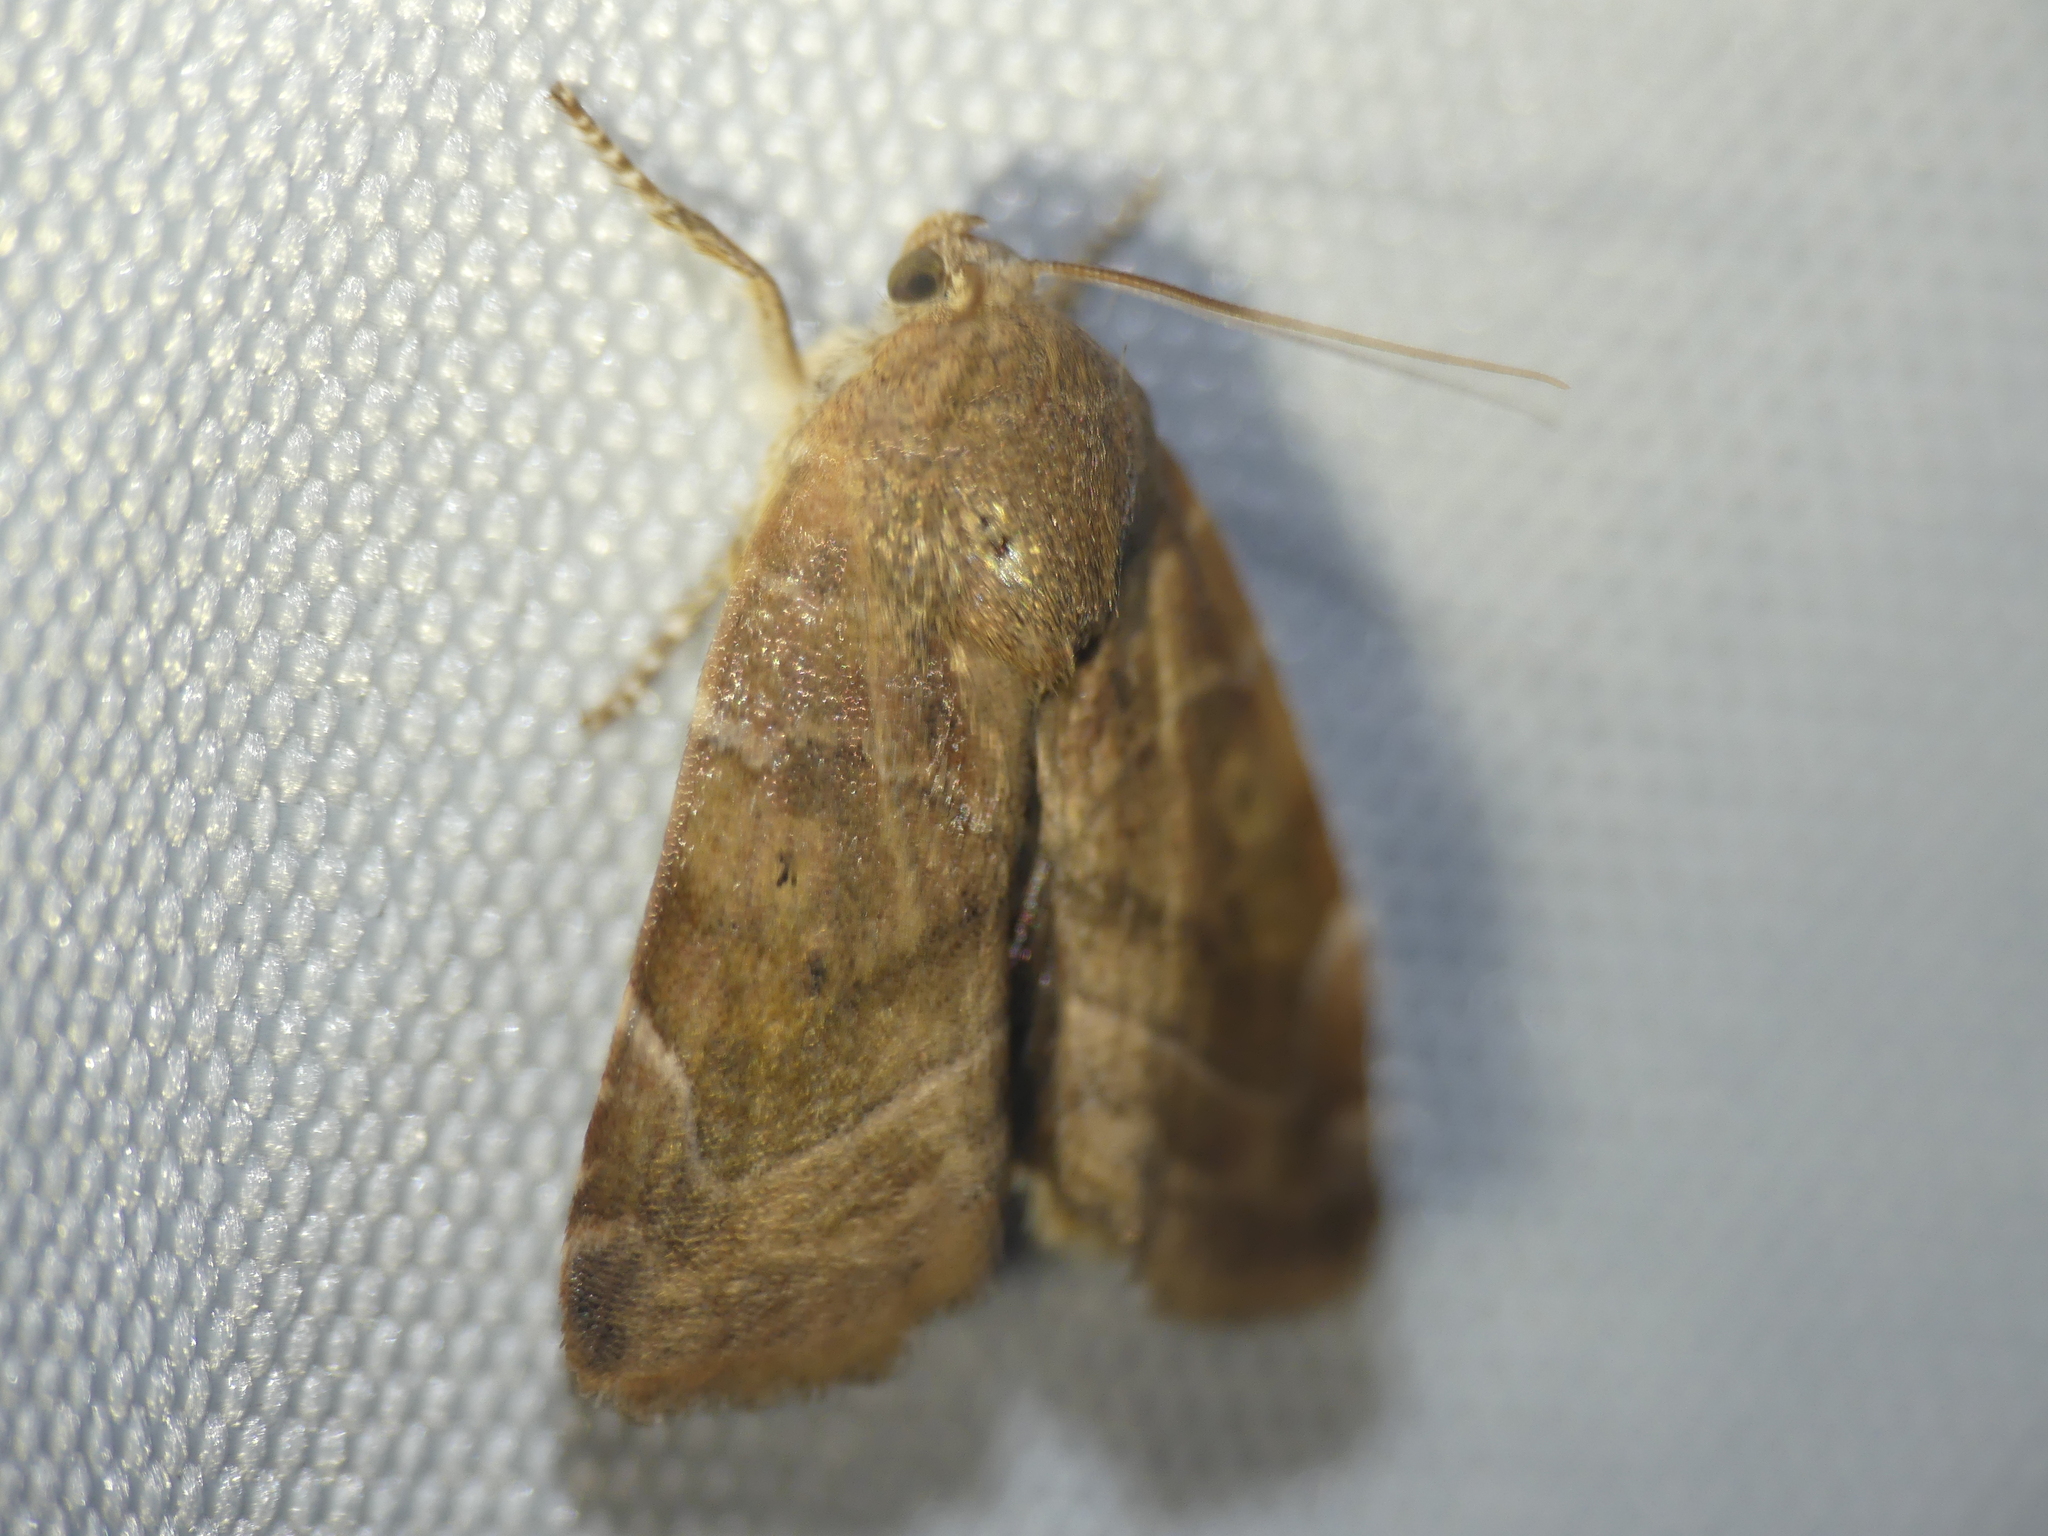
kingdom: Animalia
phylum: Arthropoda
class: Insecta
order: Lepidoptera
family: Noctuidae
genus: Cosmia
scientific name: Cosmia affinis
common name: Lesser-spotted pinion
